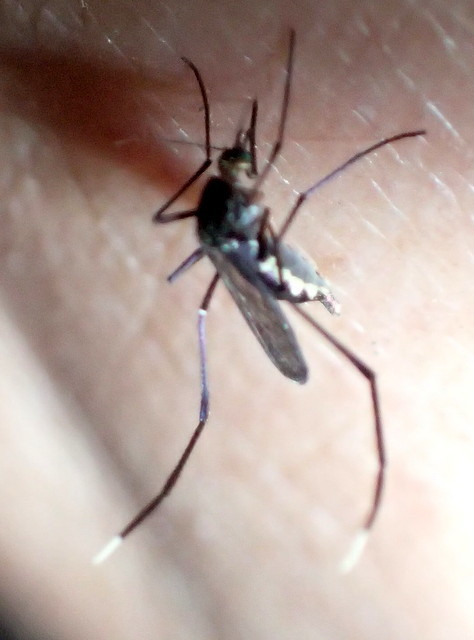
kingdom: Animalia
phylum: Arthropoda
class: Insecta
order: Diptera
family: Culicidae
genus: Psorophora
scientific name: Psorophora ferox
